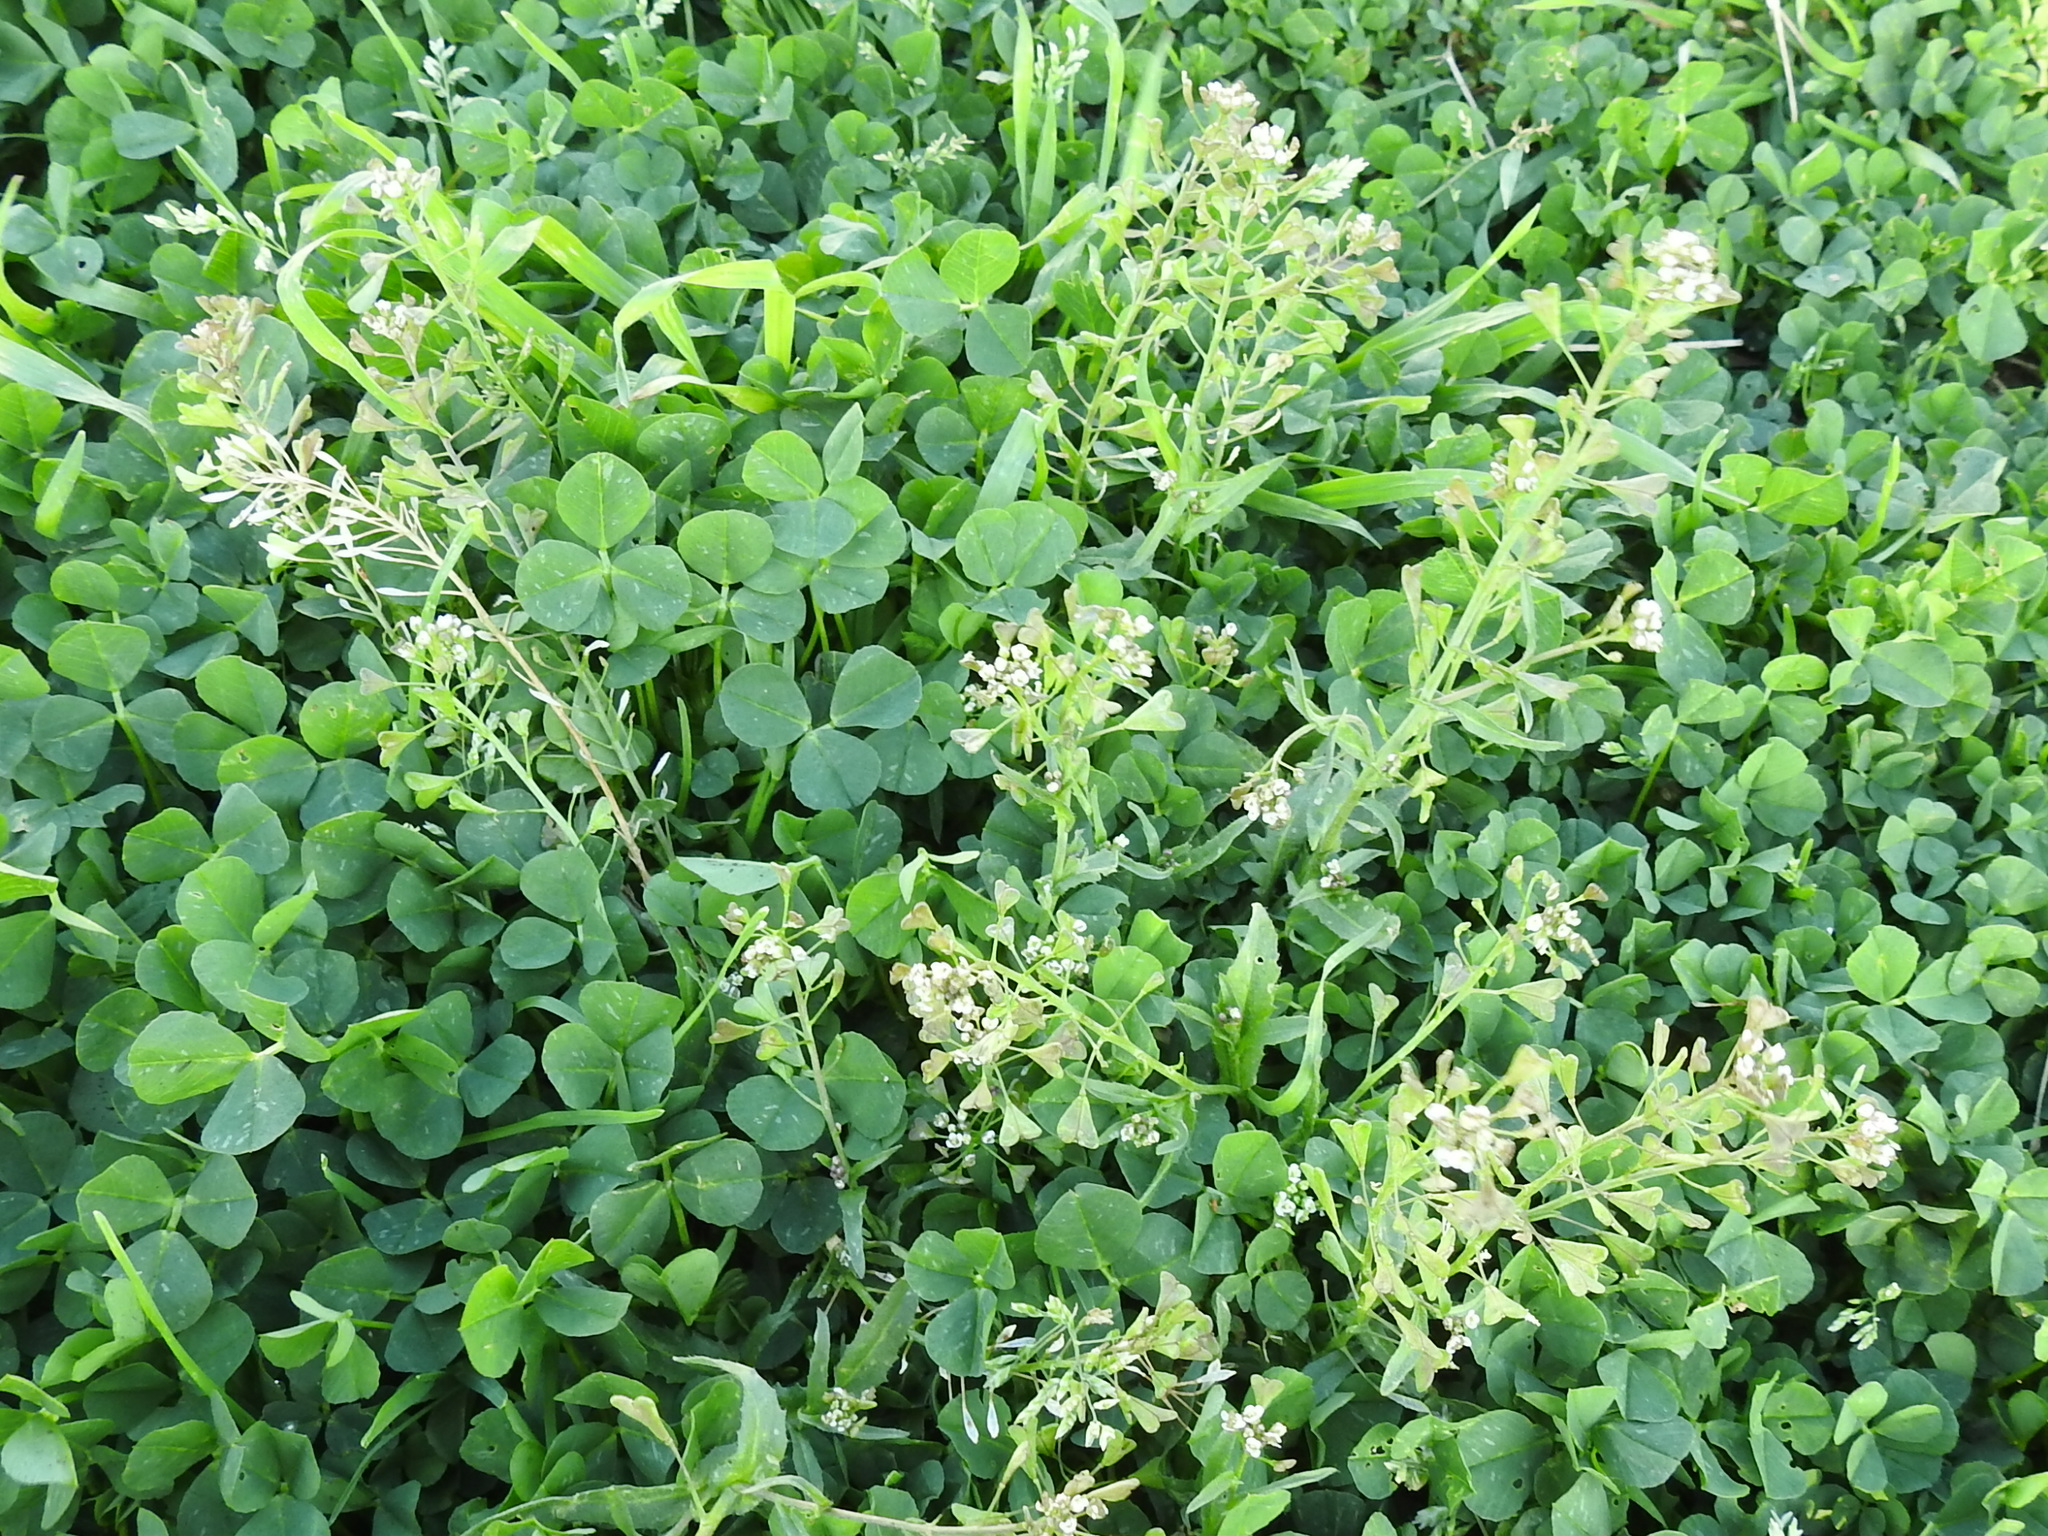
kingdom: Plantae
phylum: Tracheophyta
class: Magnoliopsida
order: Brassicales
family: Brassicaceae
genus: Capsella
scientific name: Capsella bursa-pastoris
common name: Shepherd's purse
